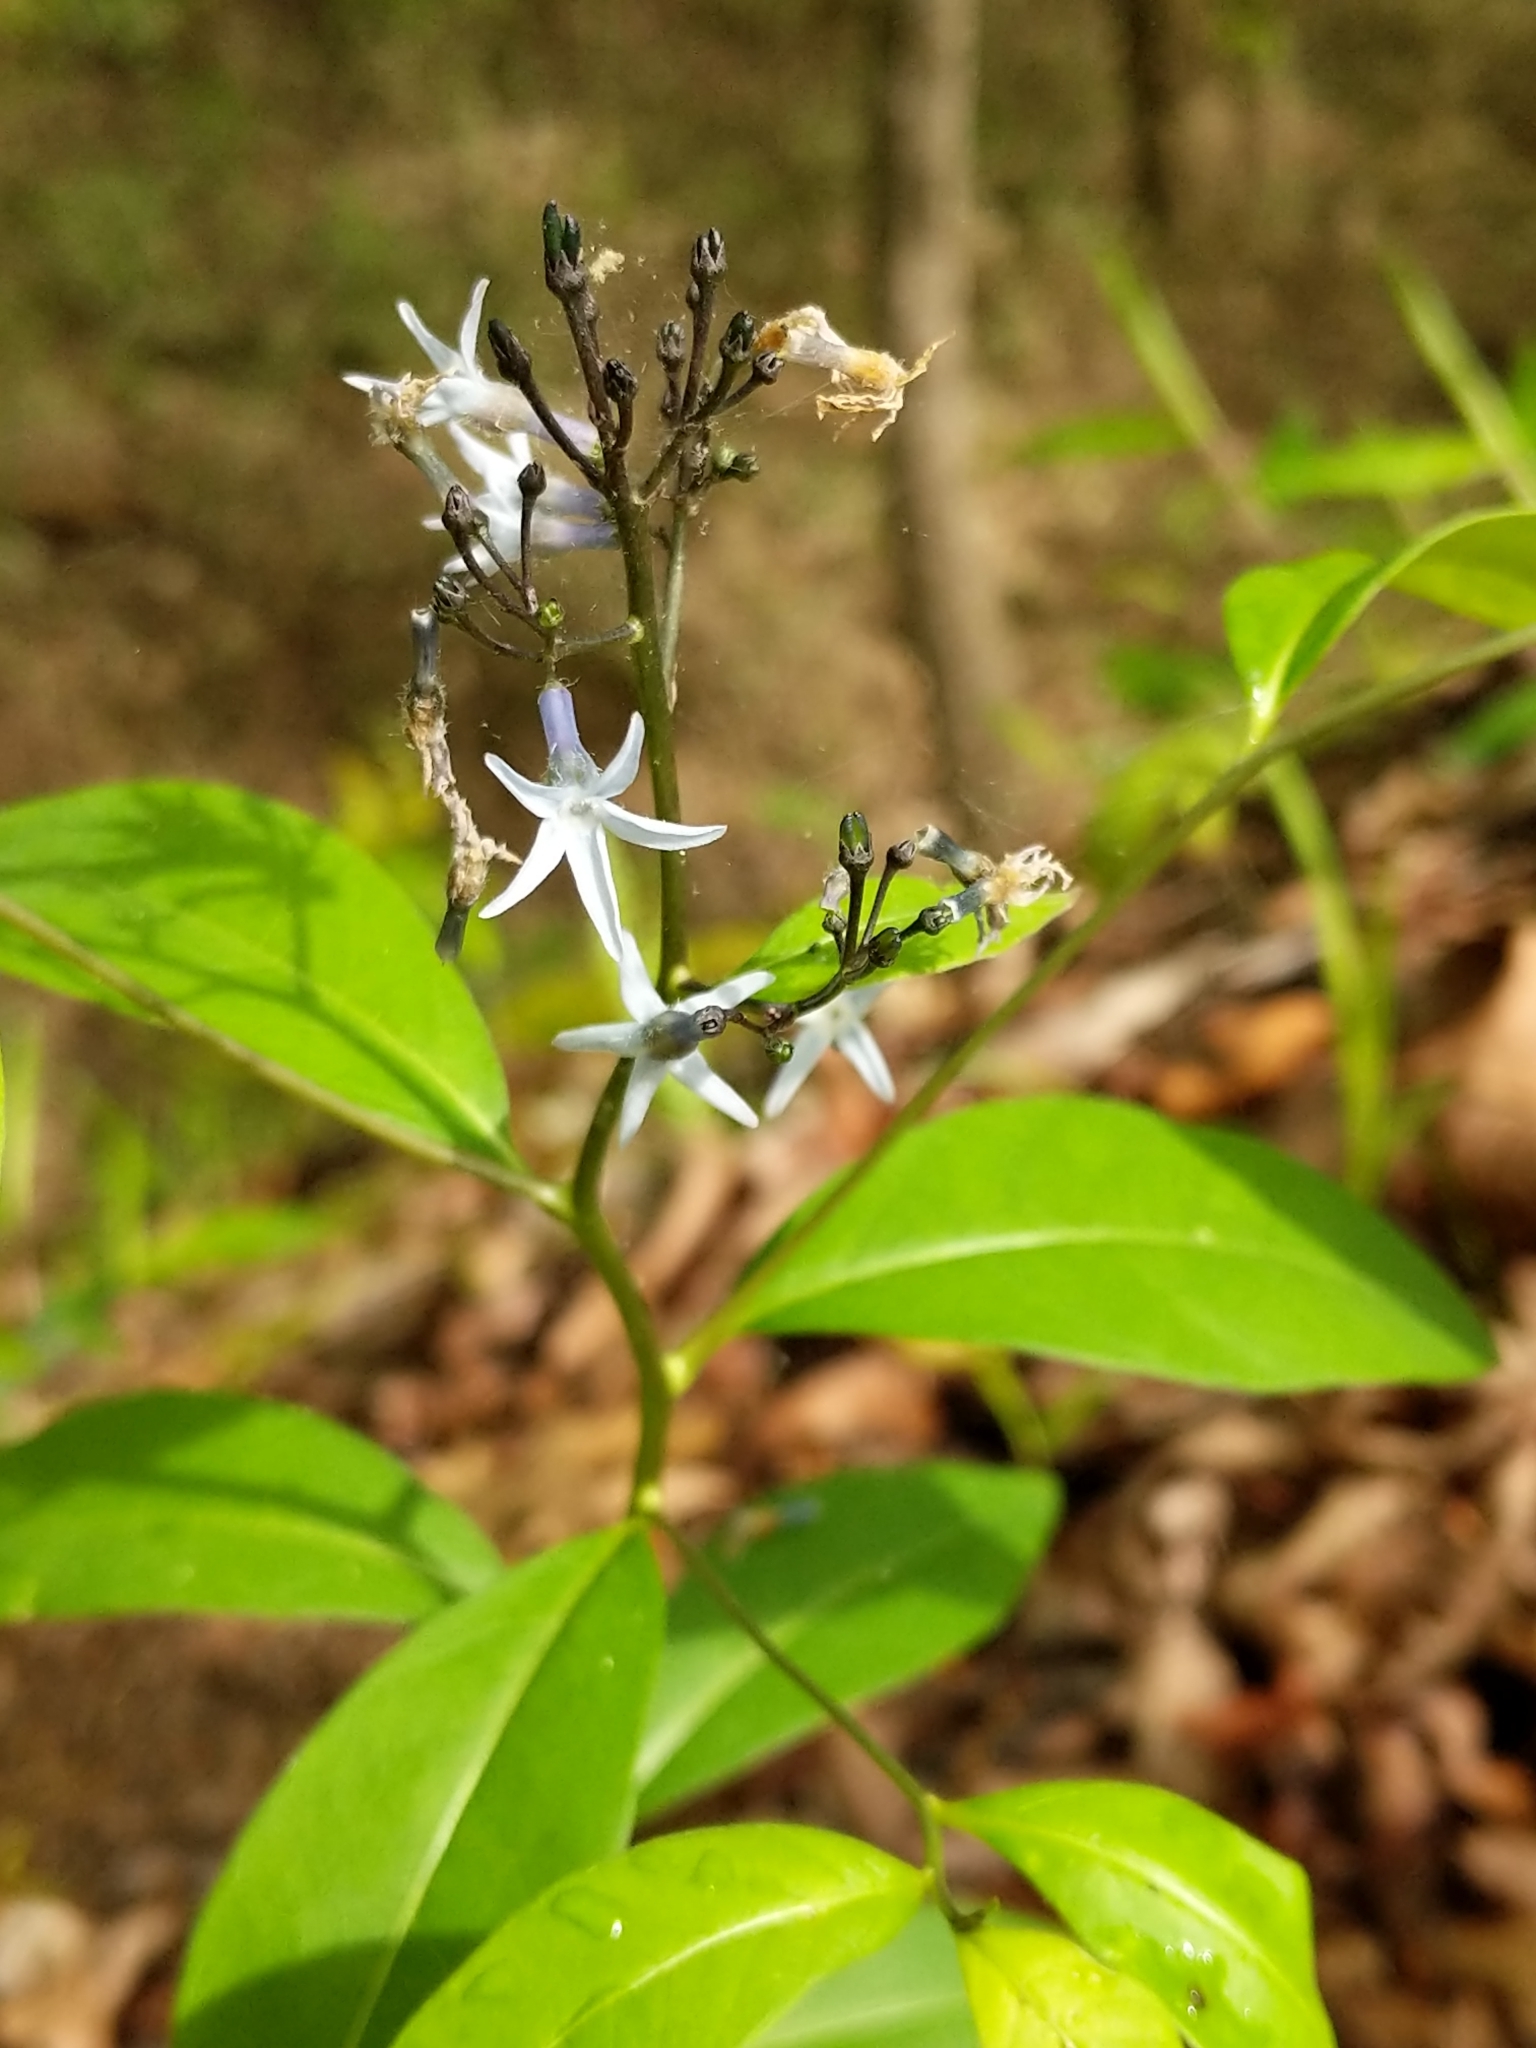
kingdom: Plantae
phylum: Tracheophyta
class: Magnoliopsida
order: Gentianales
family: Apocynaceae
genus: Amsonia
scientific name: Amsonia tabernaemontana
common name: Texas-star
